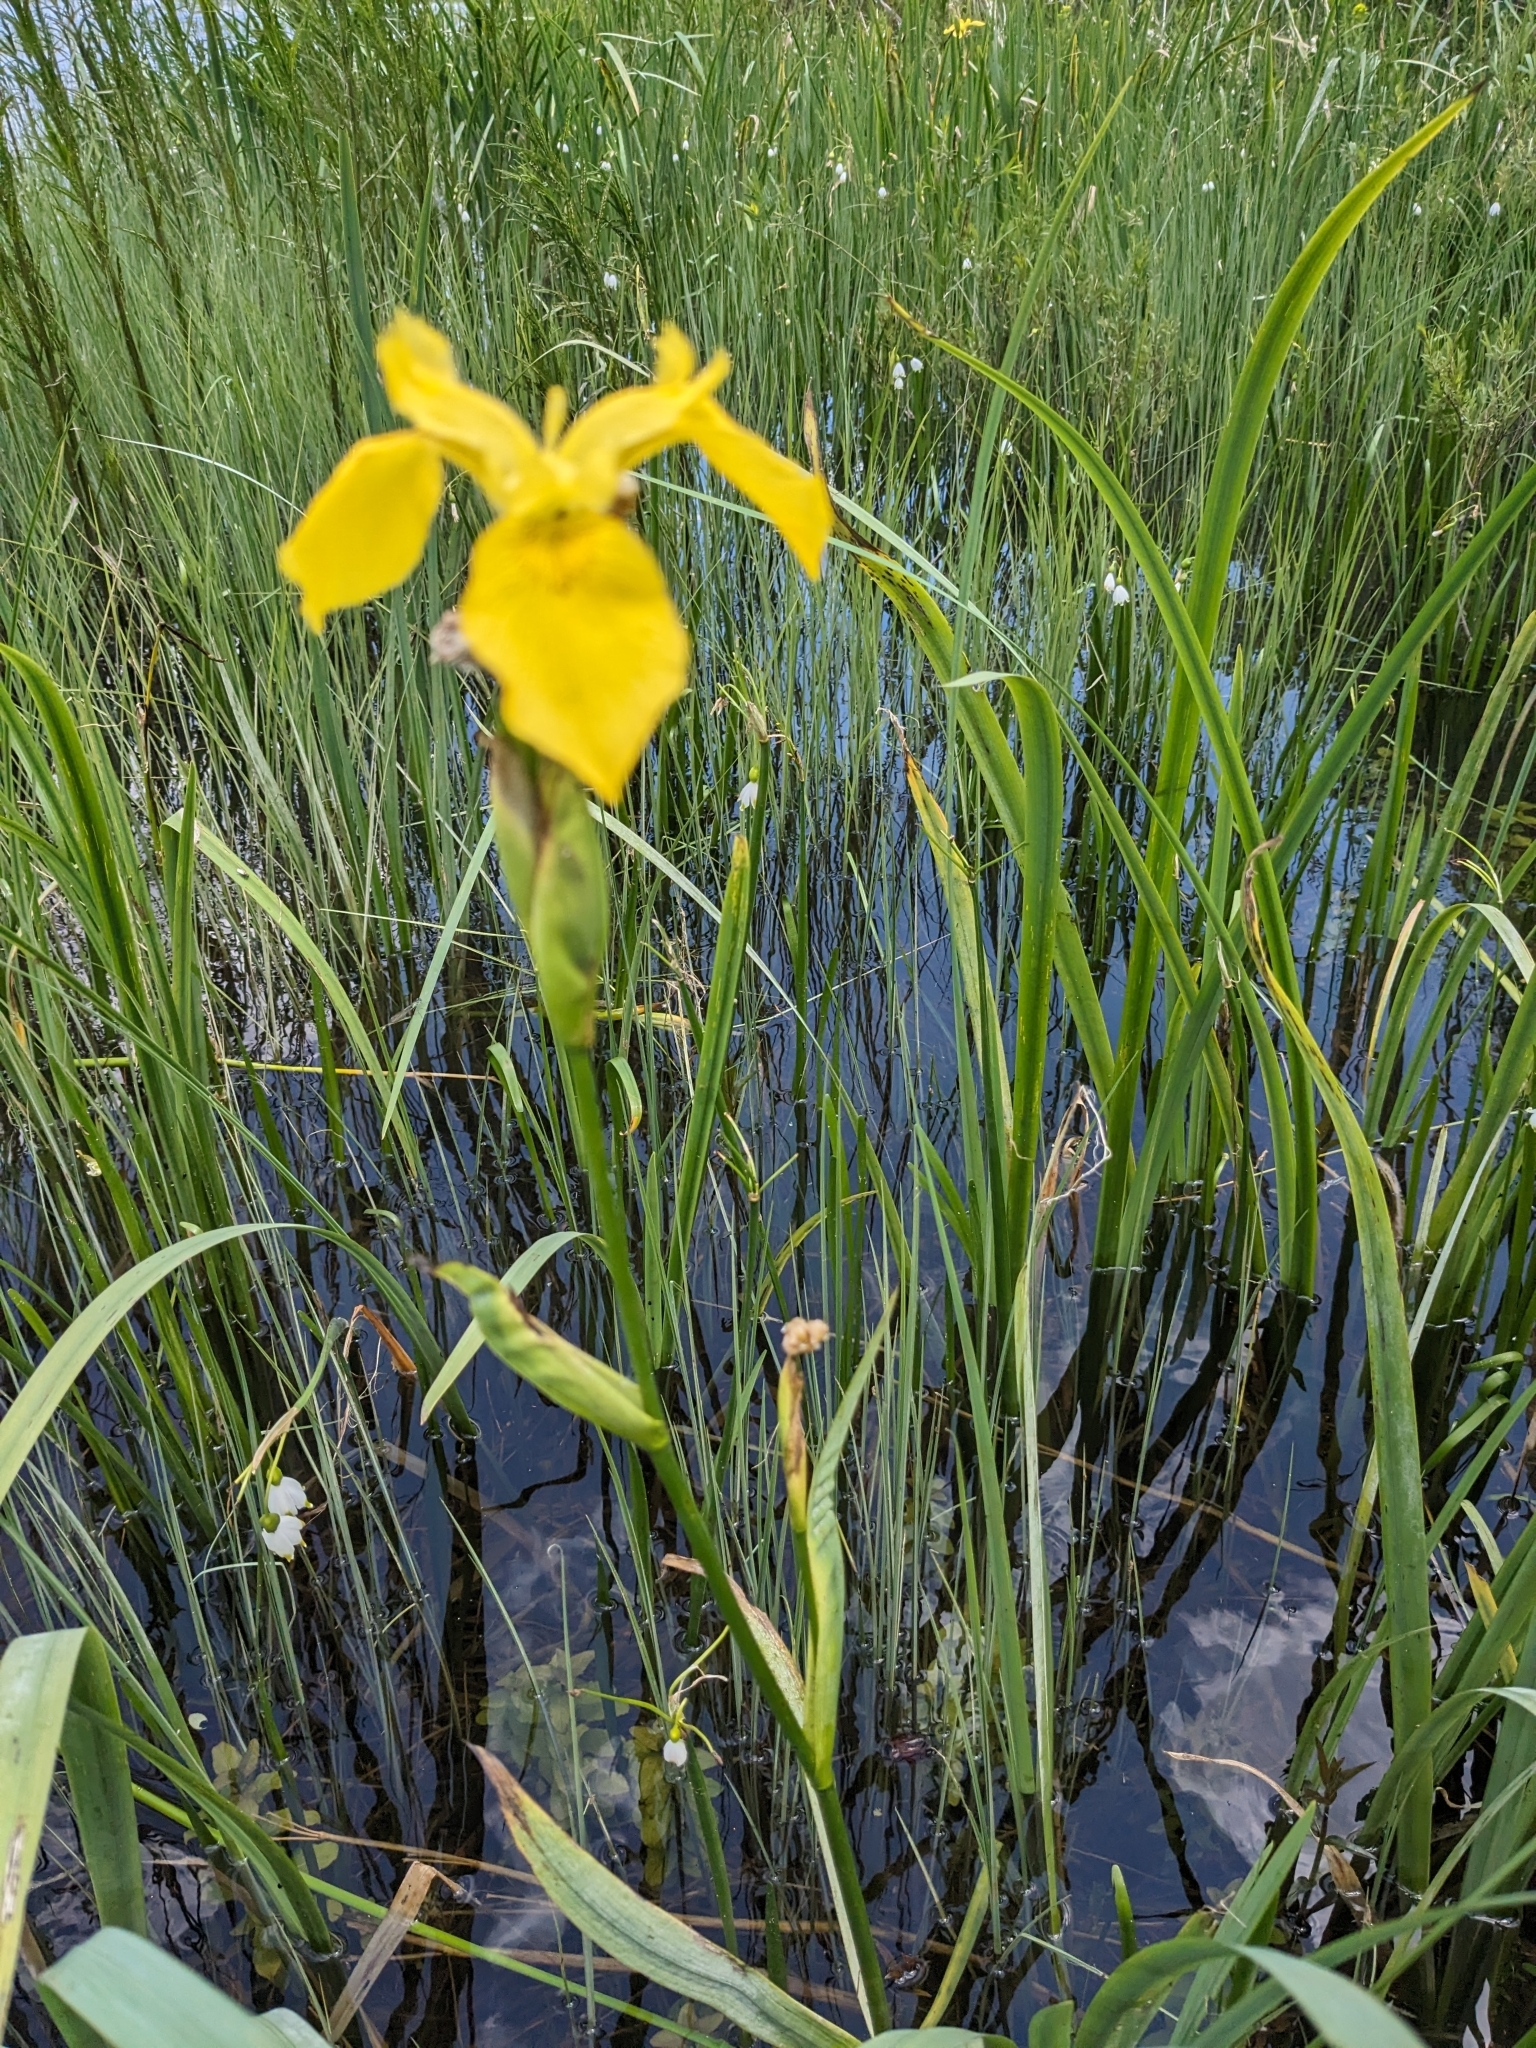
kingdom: Plantae
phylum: Tracheophyta
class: Liliopsida
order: Asparagales
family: Iridaceae
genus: Iris
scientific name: Iris pseudacorus
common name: Yellow flag
